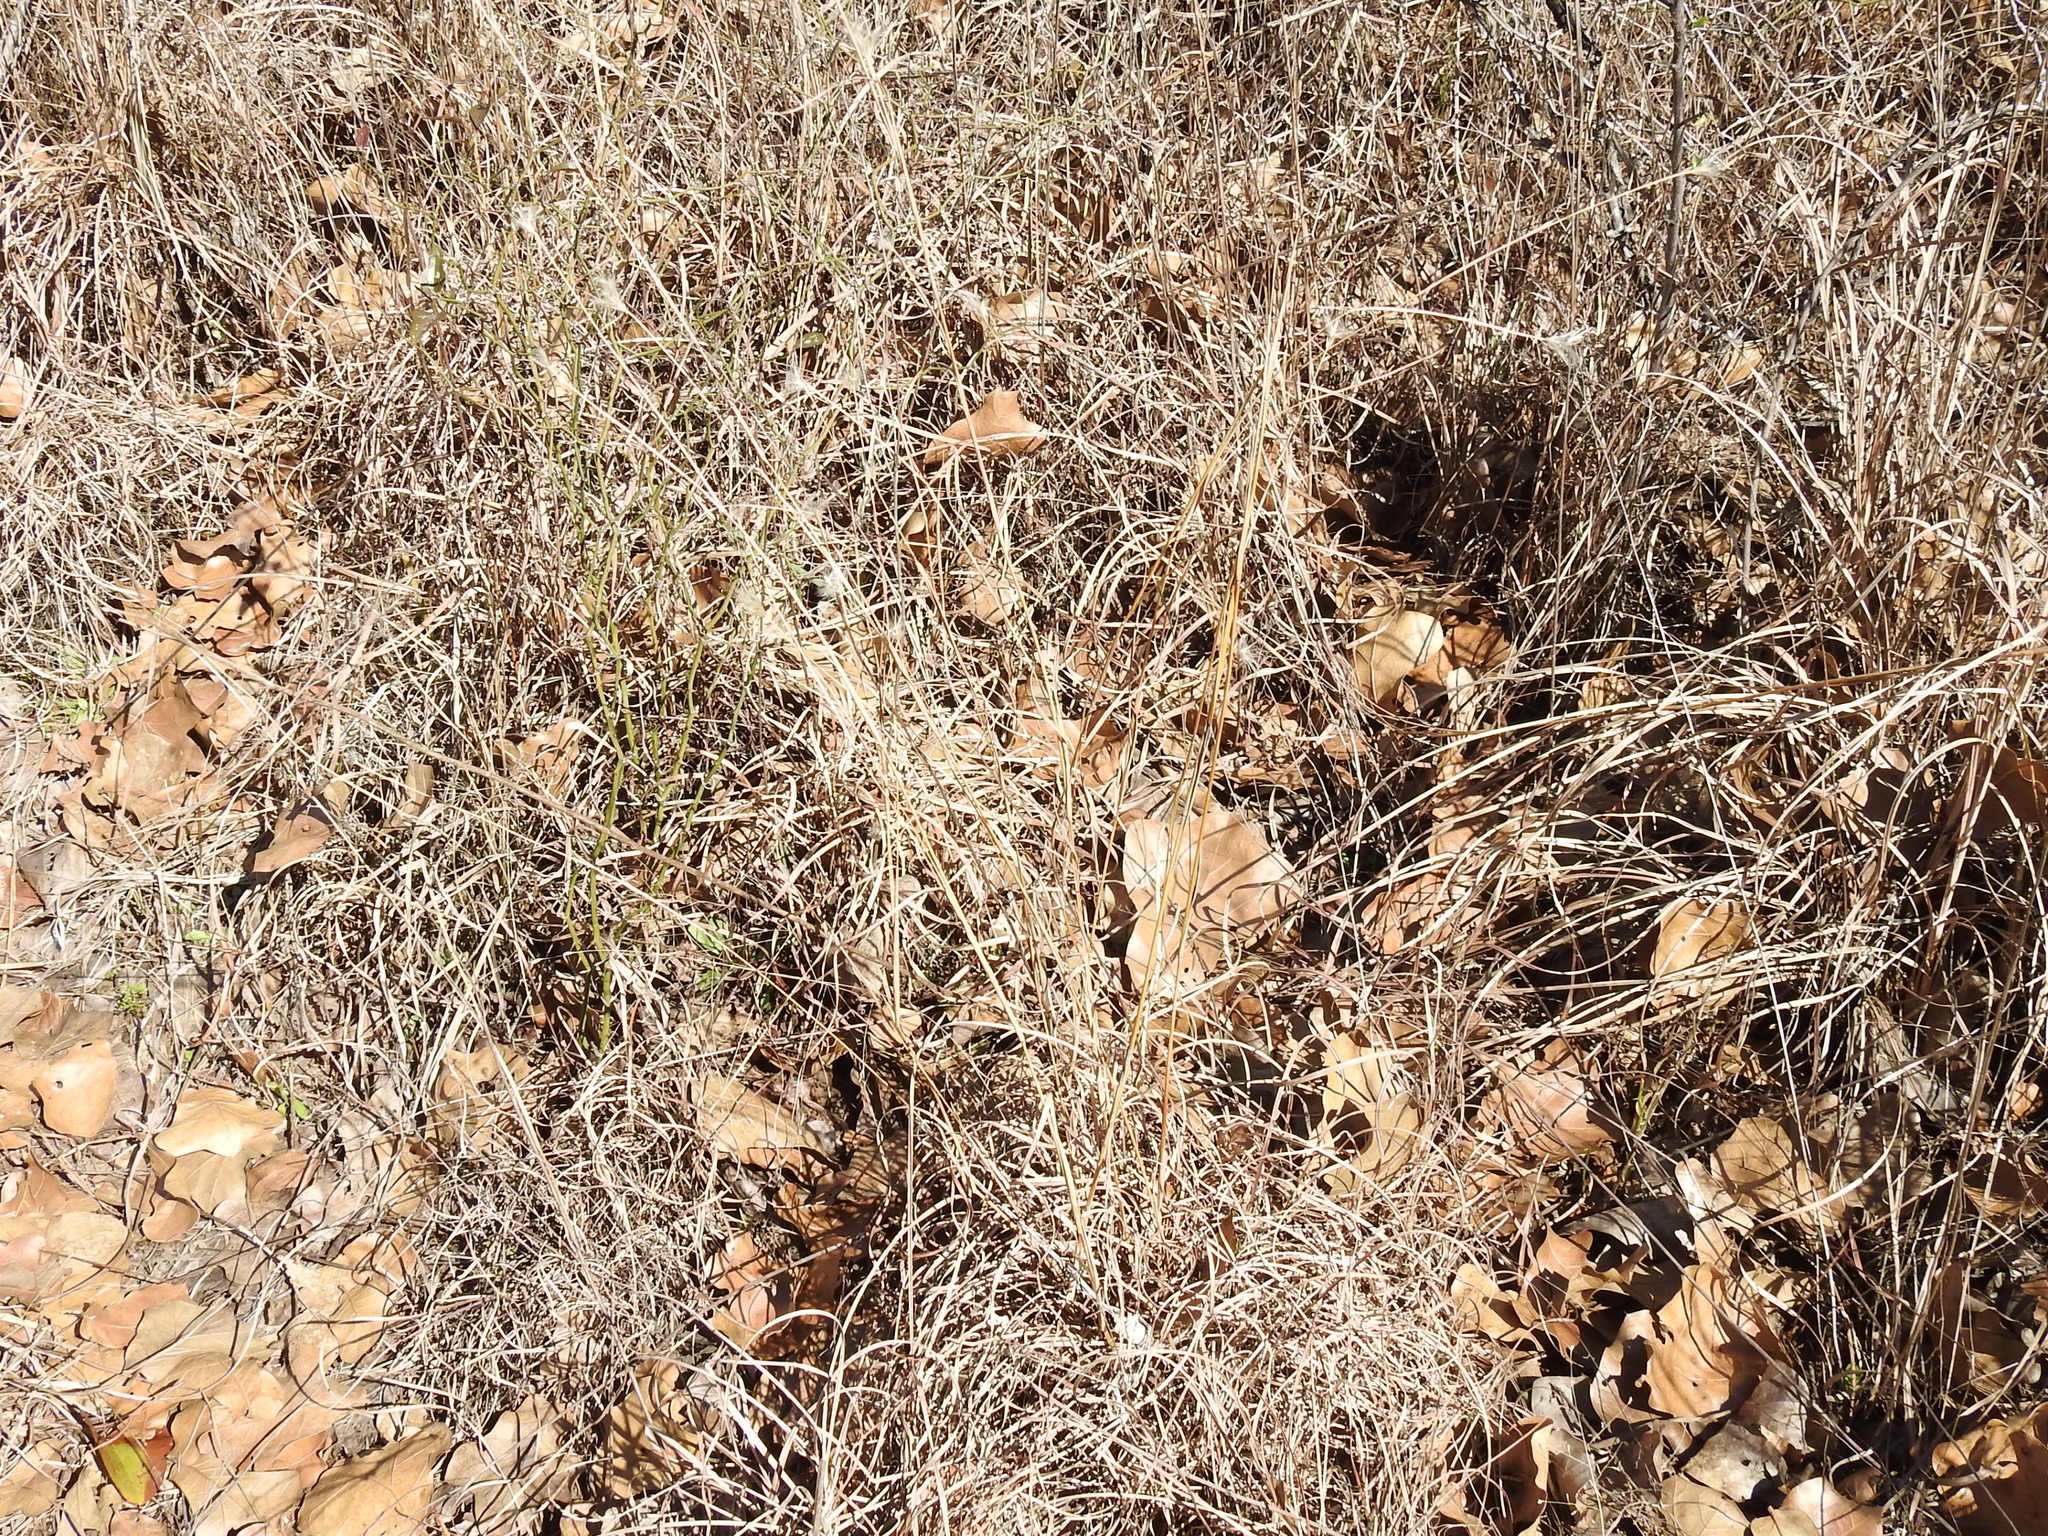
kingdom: Plantae
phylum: Tracheophyta
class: Liliopsida
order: Poales
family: Poaceae
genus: Andropogon
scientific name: Andropogon ternarius
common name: Split bluestem
